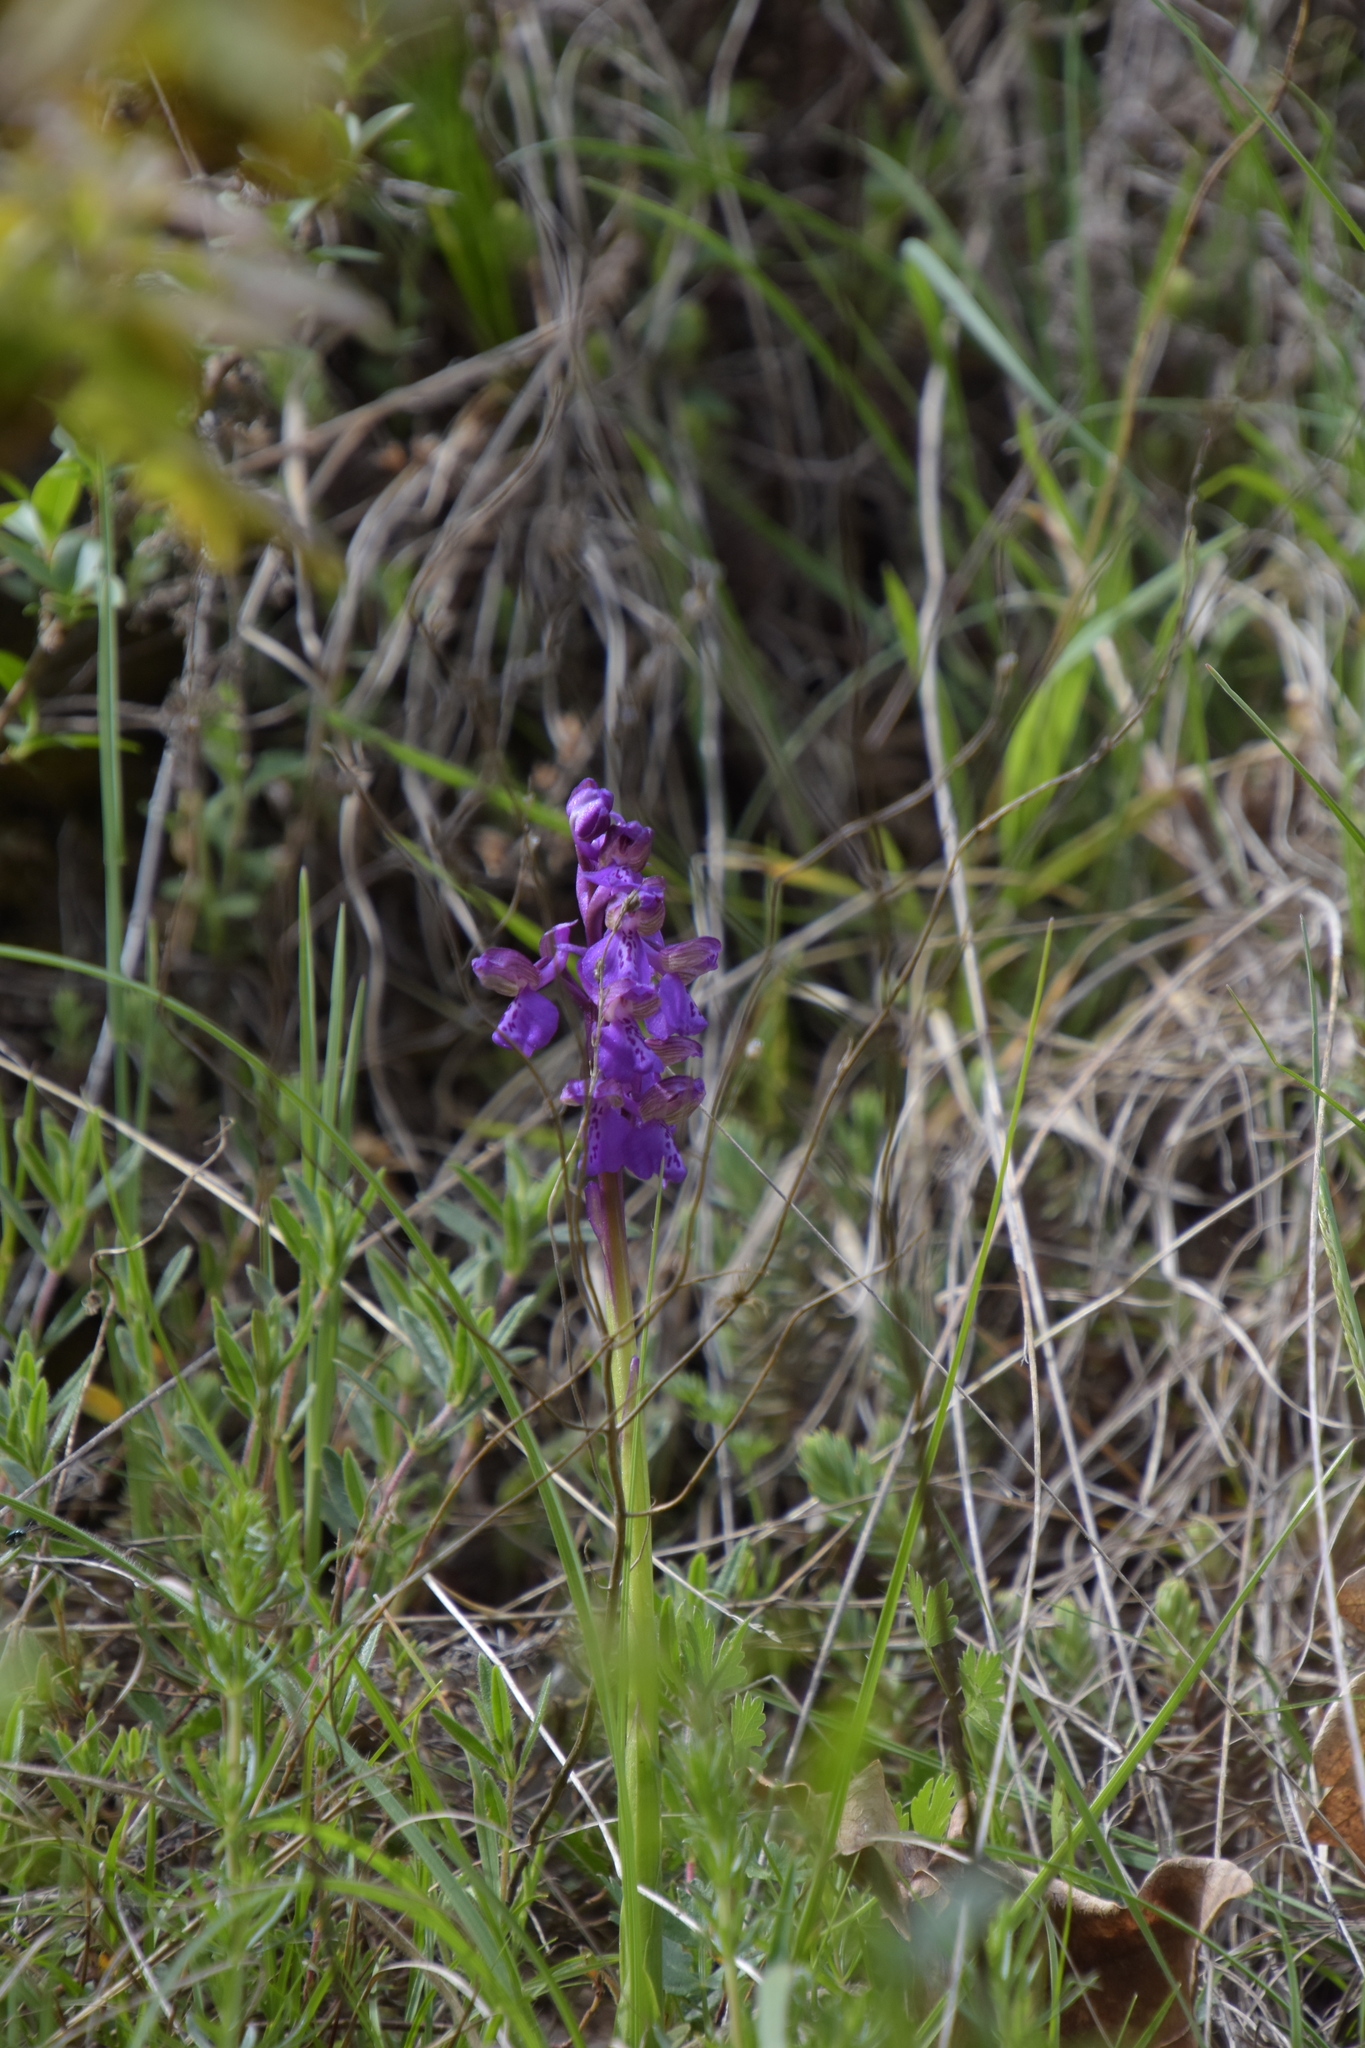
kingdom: Plantae
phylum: Tracheophyta
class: Liliopsida
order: Asparagales
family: Orchidaceae
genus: Anacamptis
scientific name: Anacamptis morio
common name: Green-winged orchid
